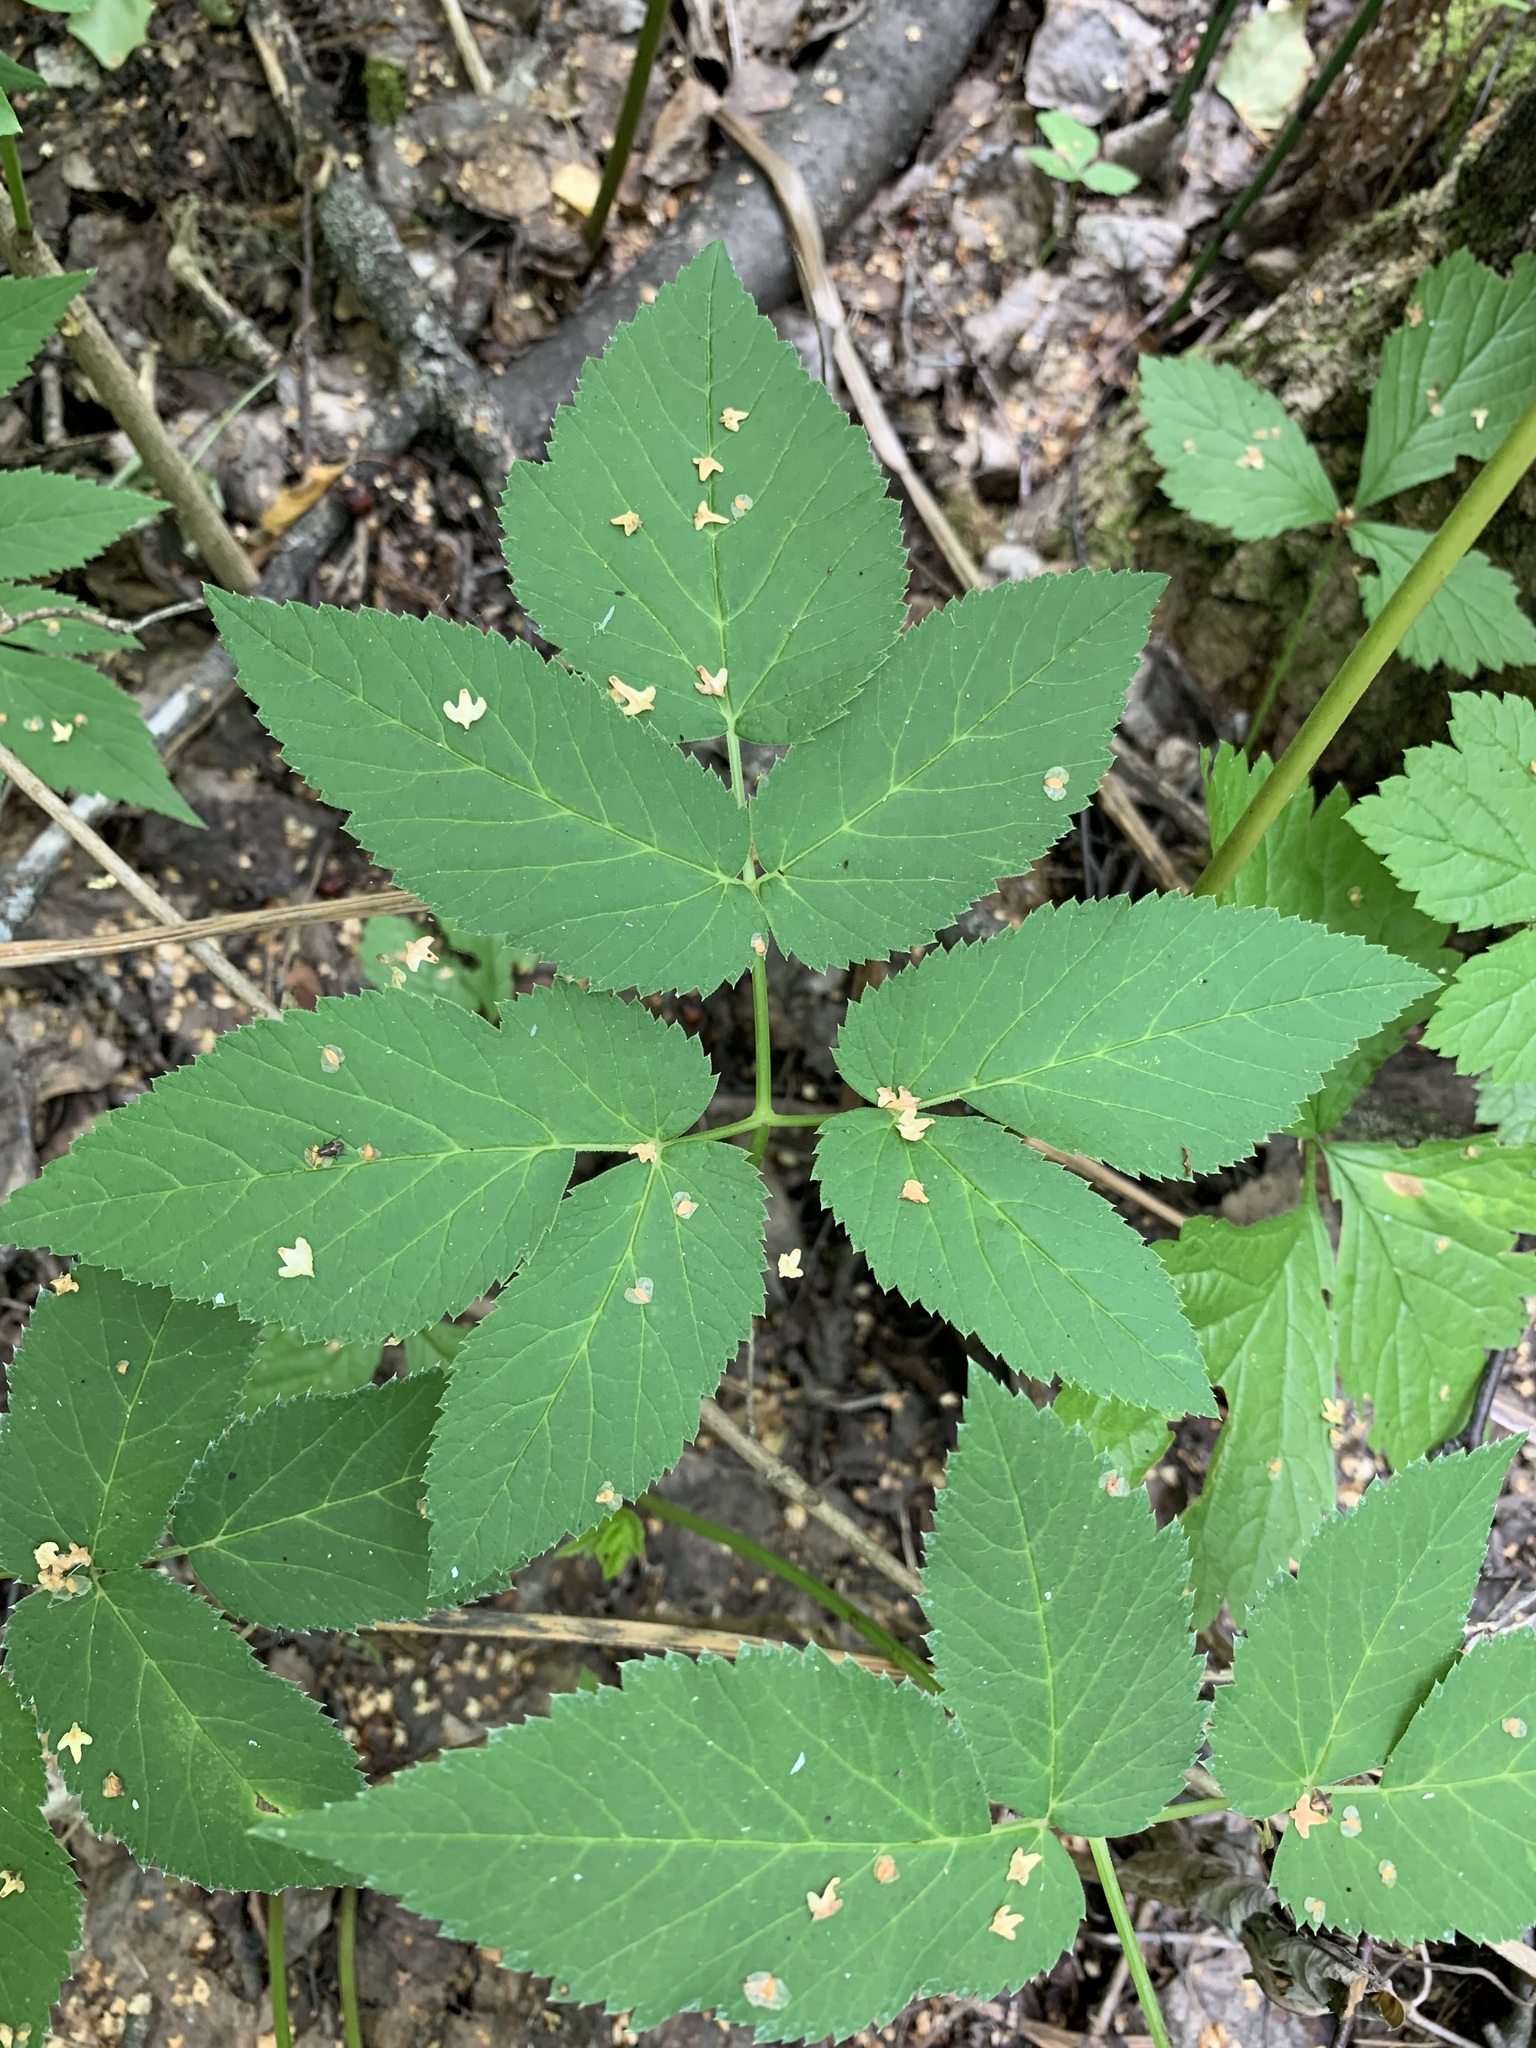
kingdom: Plantae
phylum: Tracheophyta
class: Magnoliopsida
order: Apiales
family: Apiaceae
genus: Aegopodium
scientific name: Aegopodium podagraria
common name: Ground-elder
